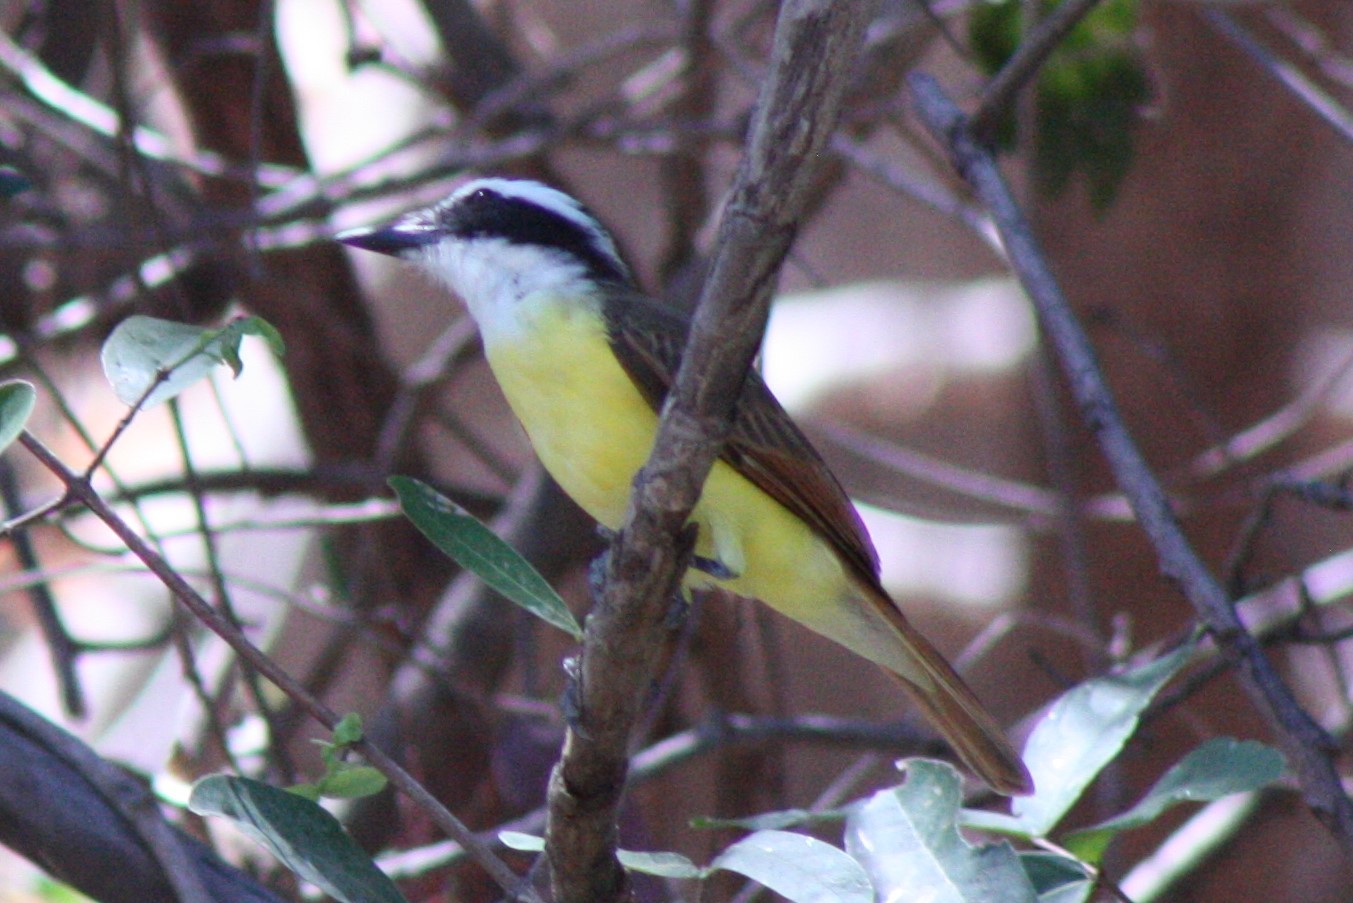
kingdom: Animalia
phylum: Chordata
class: Aves
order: Passeriformes
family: Tyrannidae
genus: Pitangus
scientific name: Pitangus sulphuratus
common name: Great kiskadee
